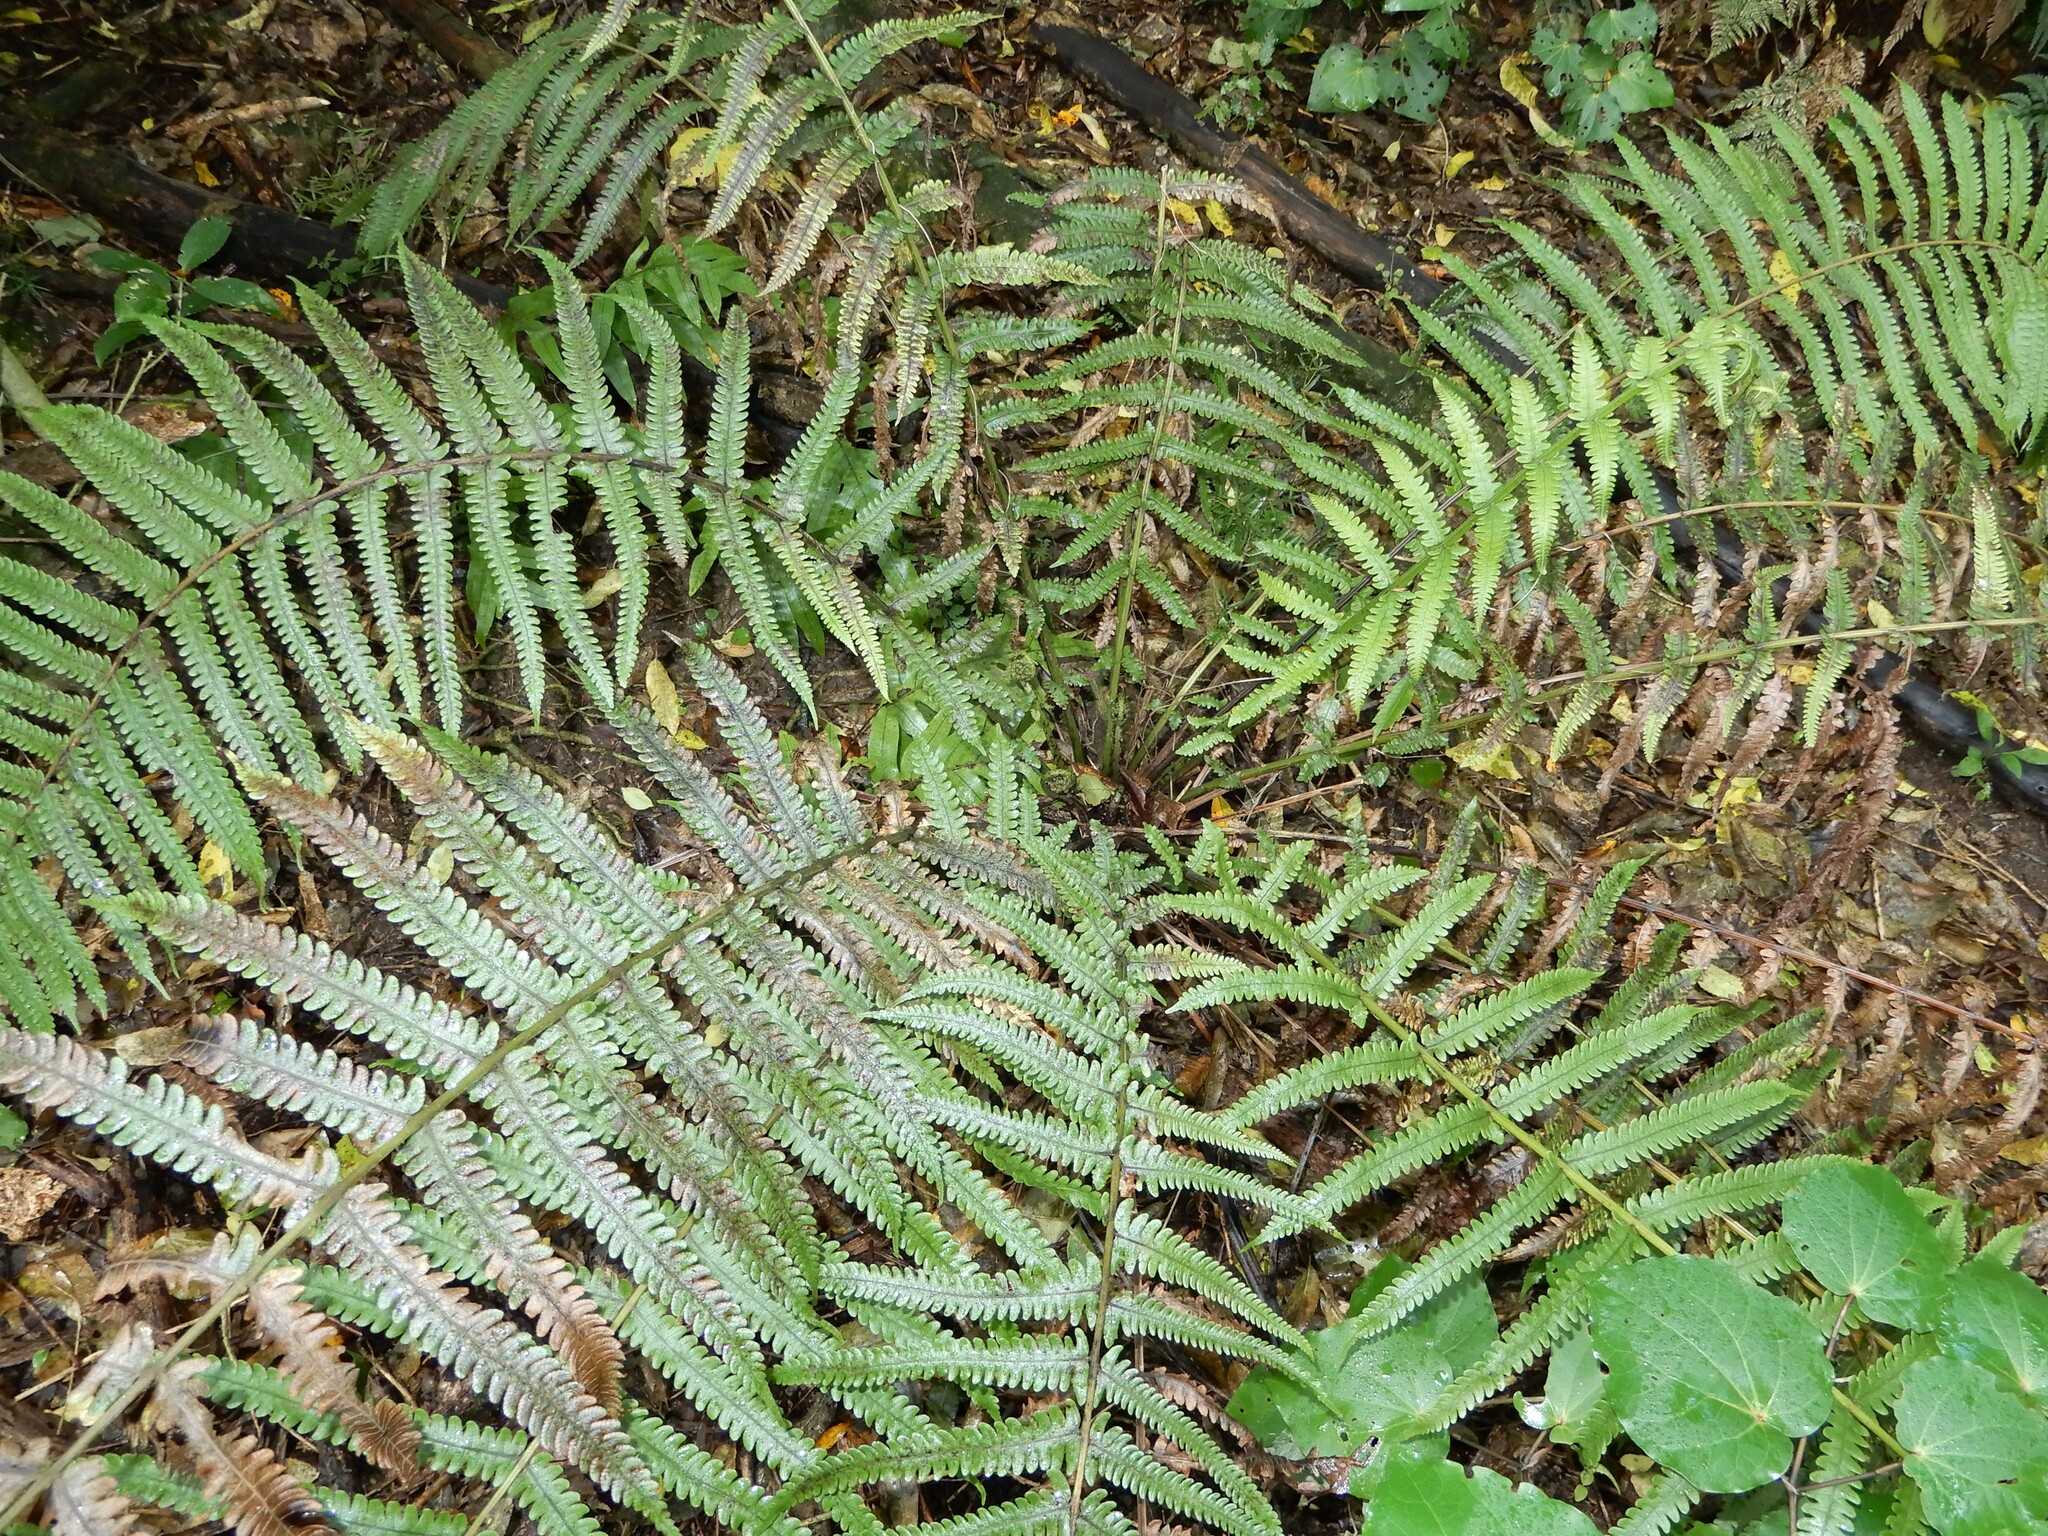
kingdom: Plantae
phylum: Tracheophyta
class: Polypodiopsida
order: Polypodiales
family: Thelypteridaceae
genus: Pakau
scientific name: Pakau pennigera
